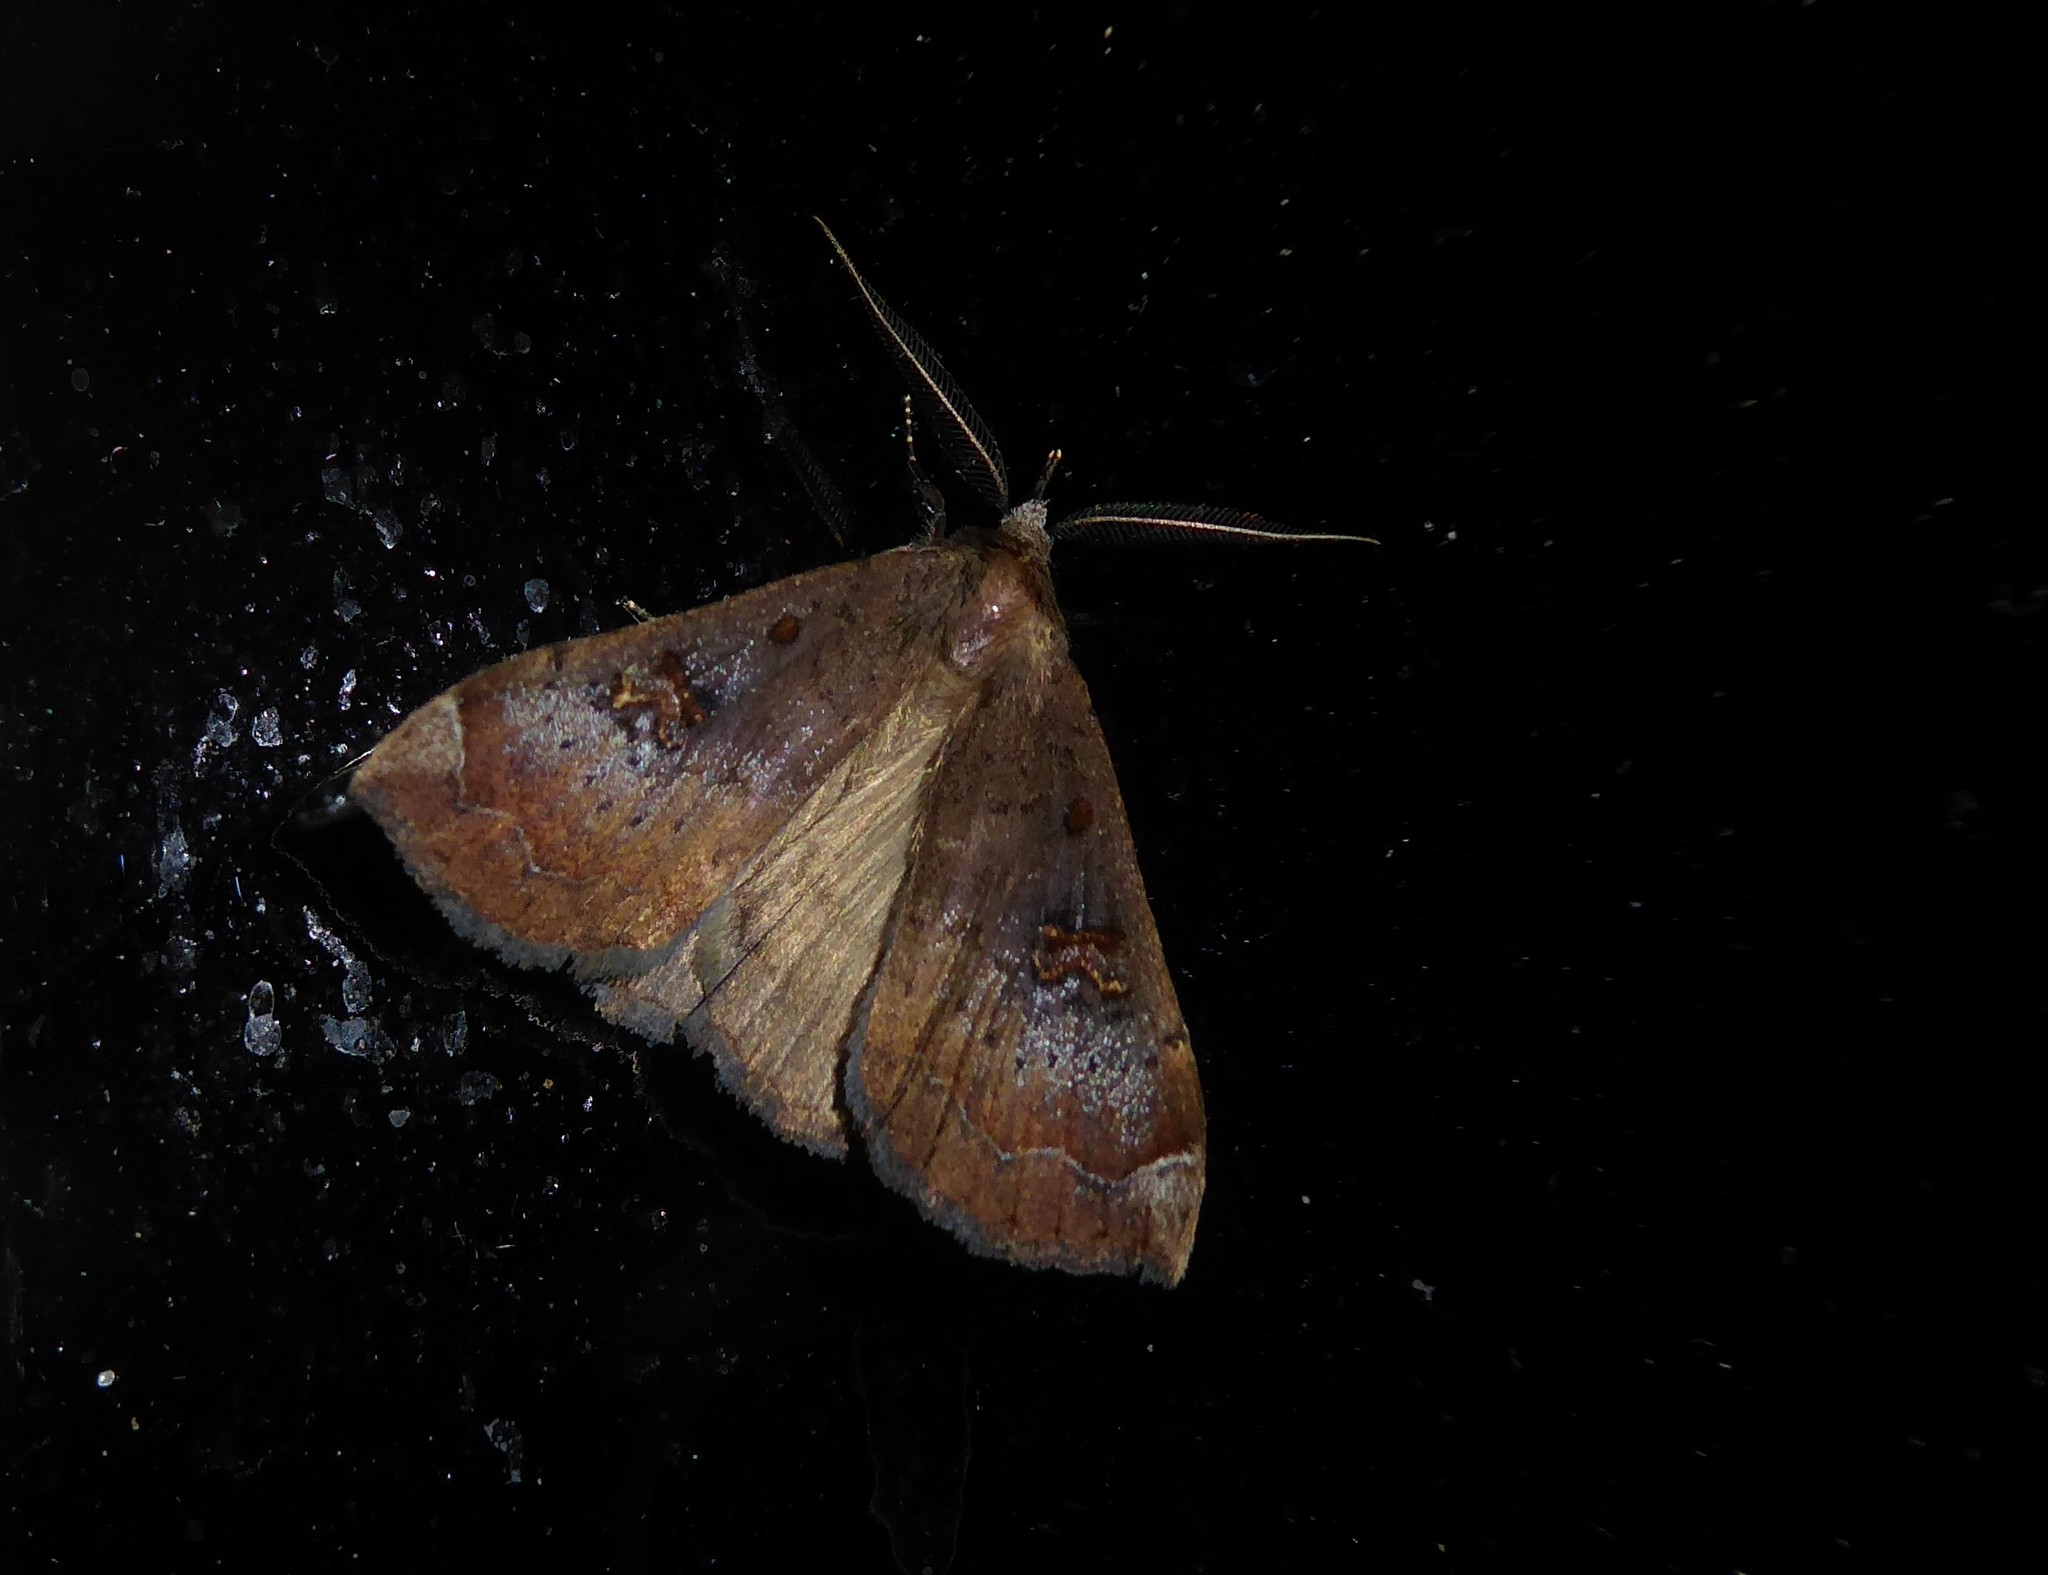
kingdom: Animalia
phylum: Arthropoda
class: Insecta
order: Lepidoptera
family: Erebidae
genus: Rhapsa
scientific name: Rhapsa scotosialis
